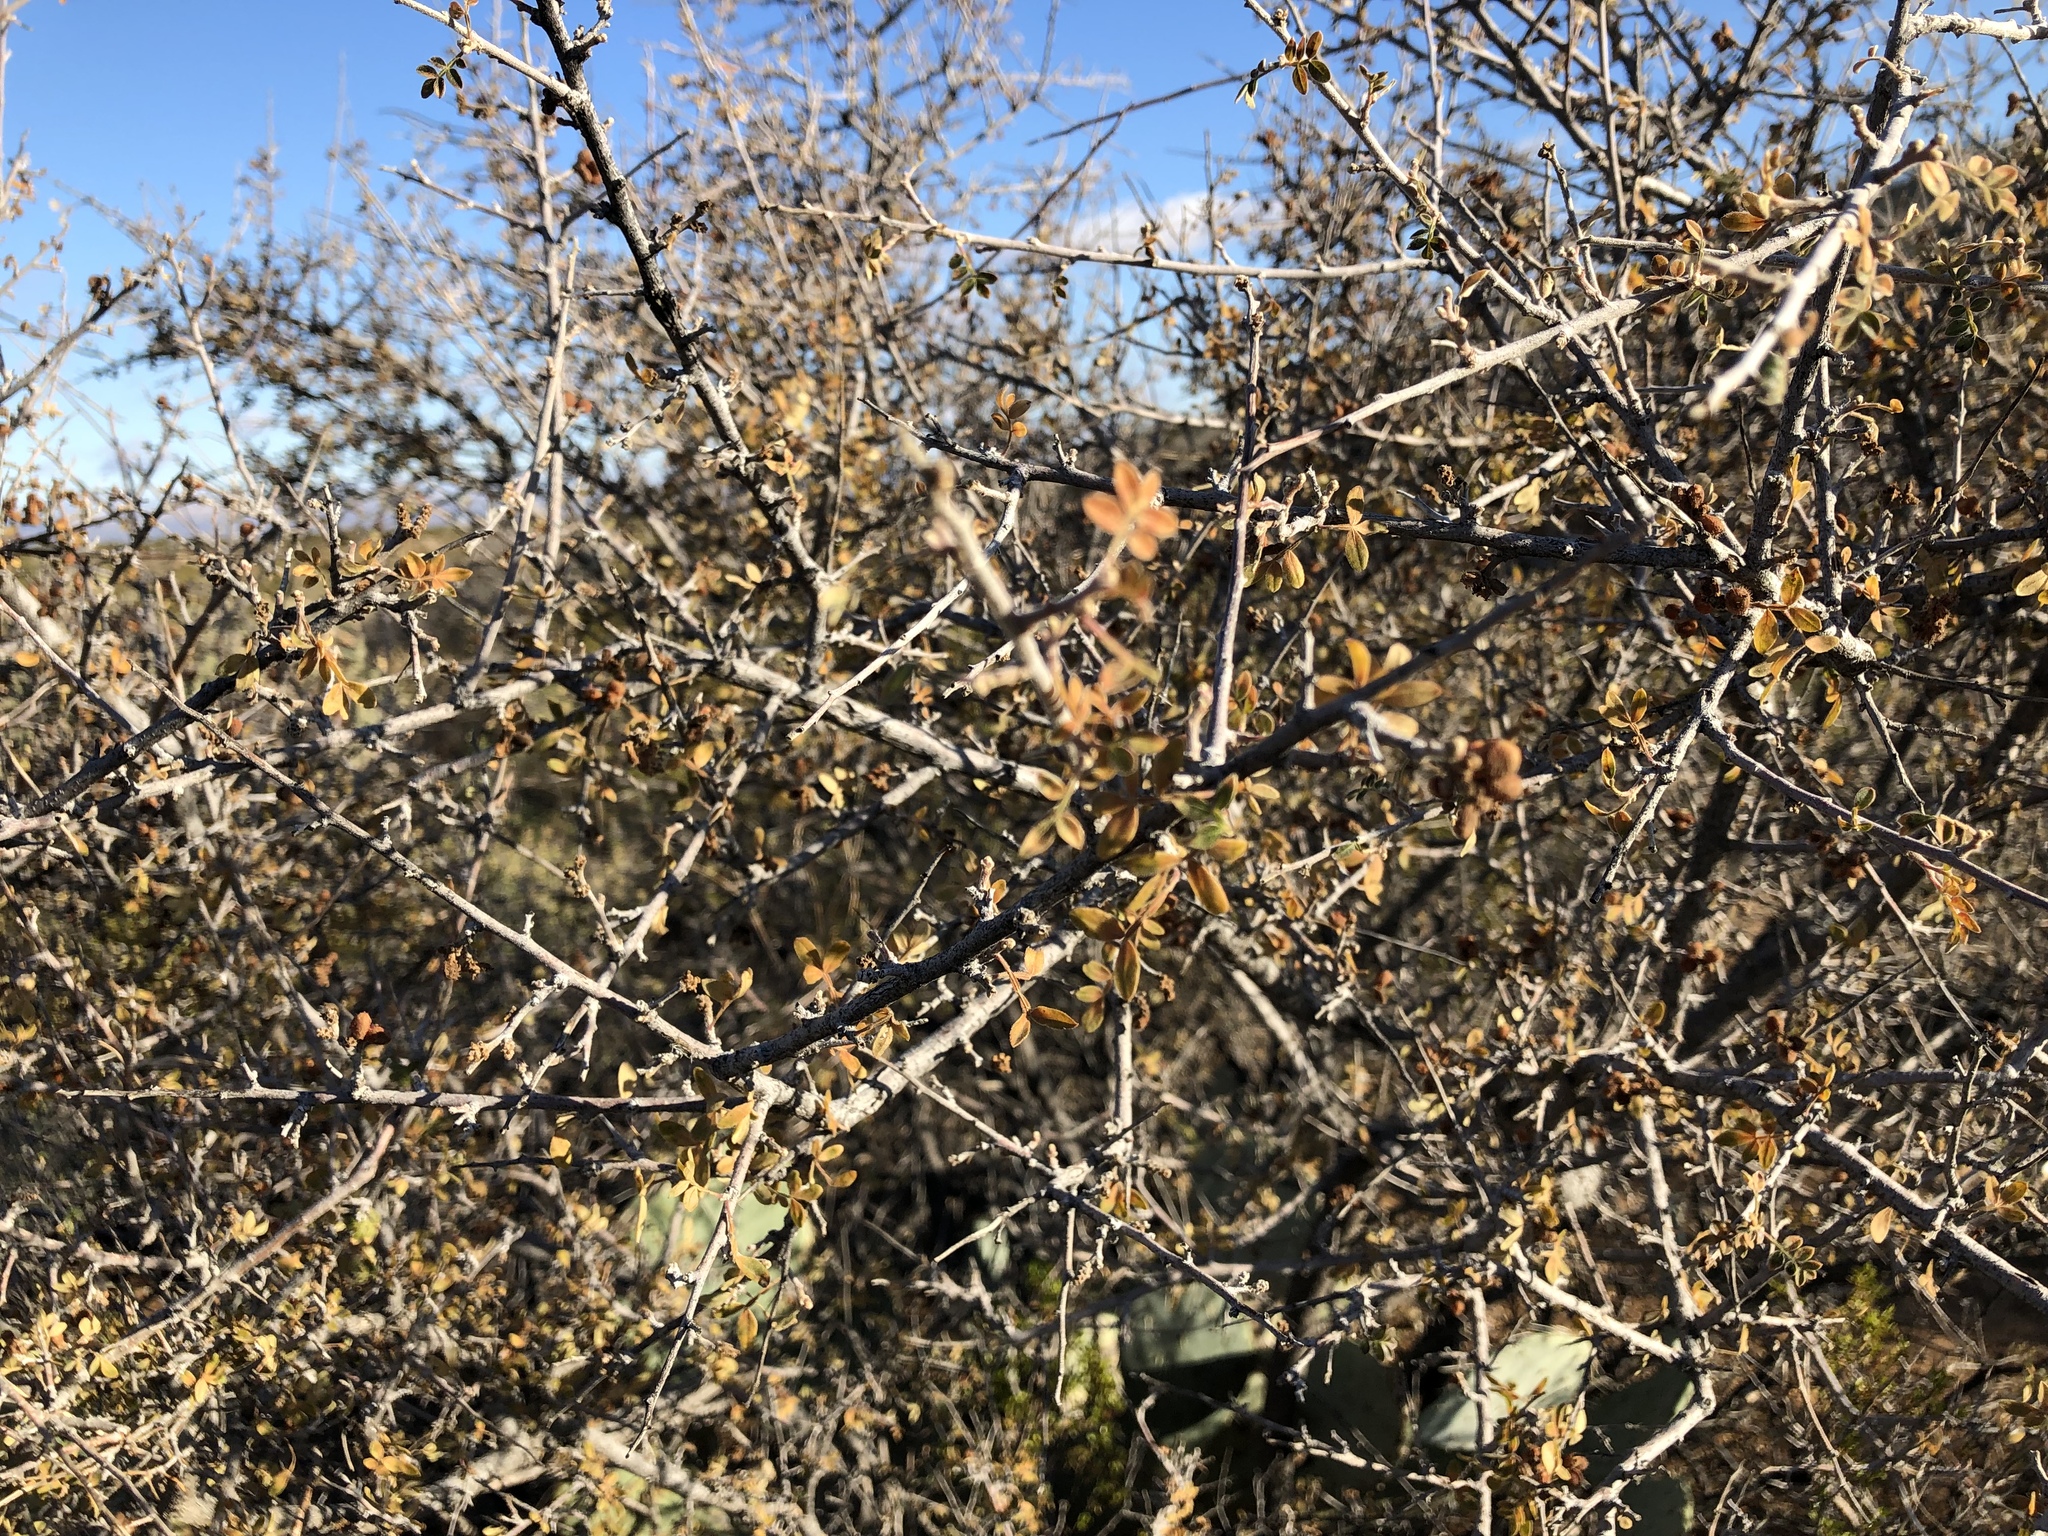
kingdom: Plantae
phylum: Tracheophyta
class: Magnoliopsida
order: Sapindales
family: Anacardiaceae
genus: Rhus
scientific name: Rhus microphylla
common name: Desert sumac
